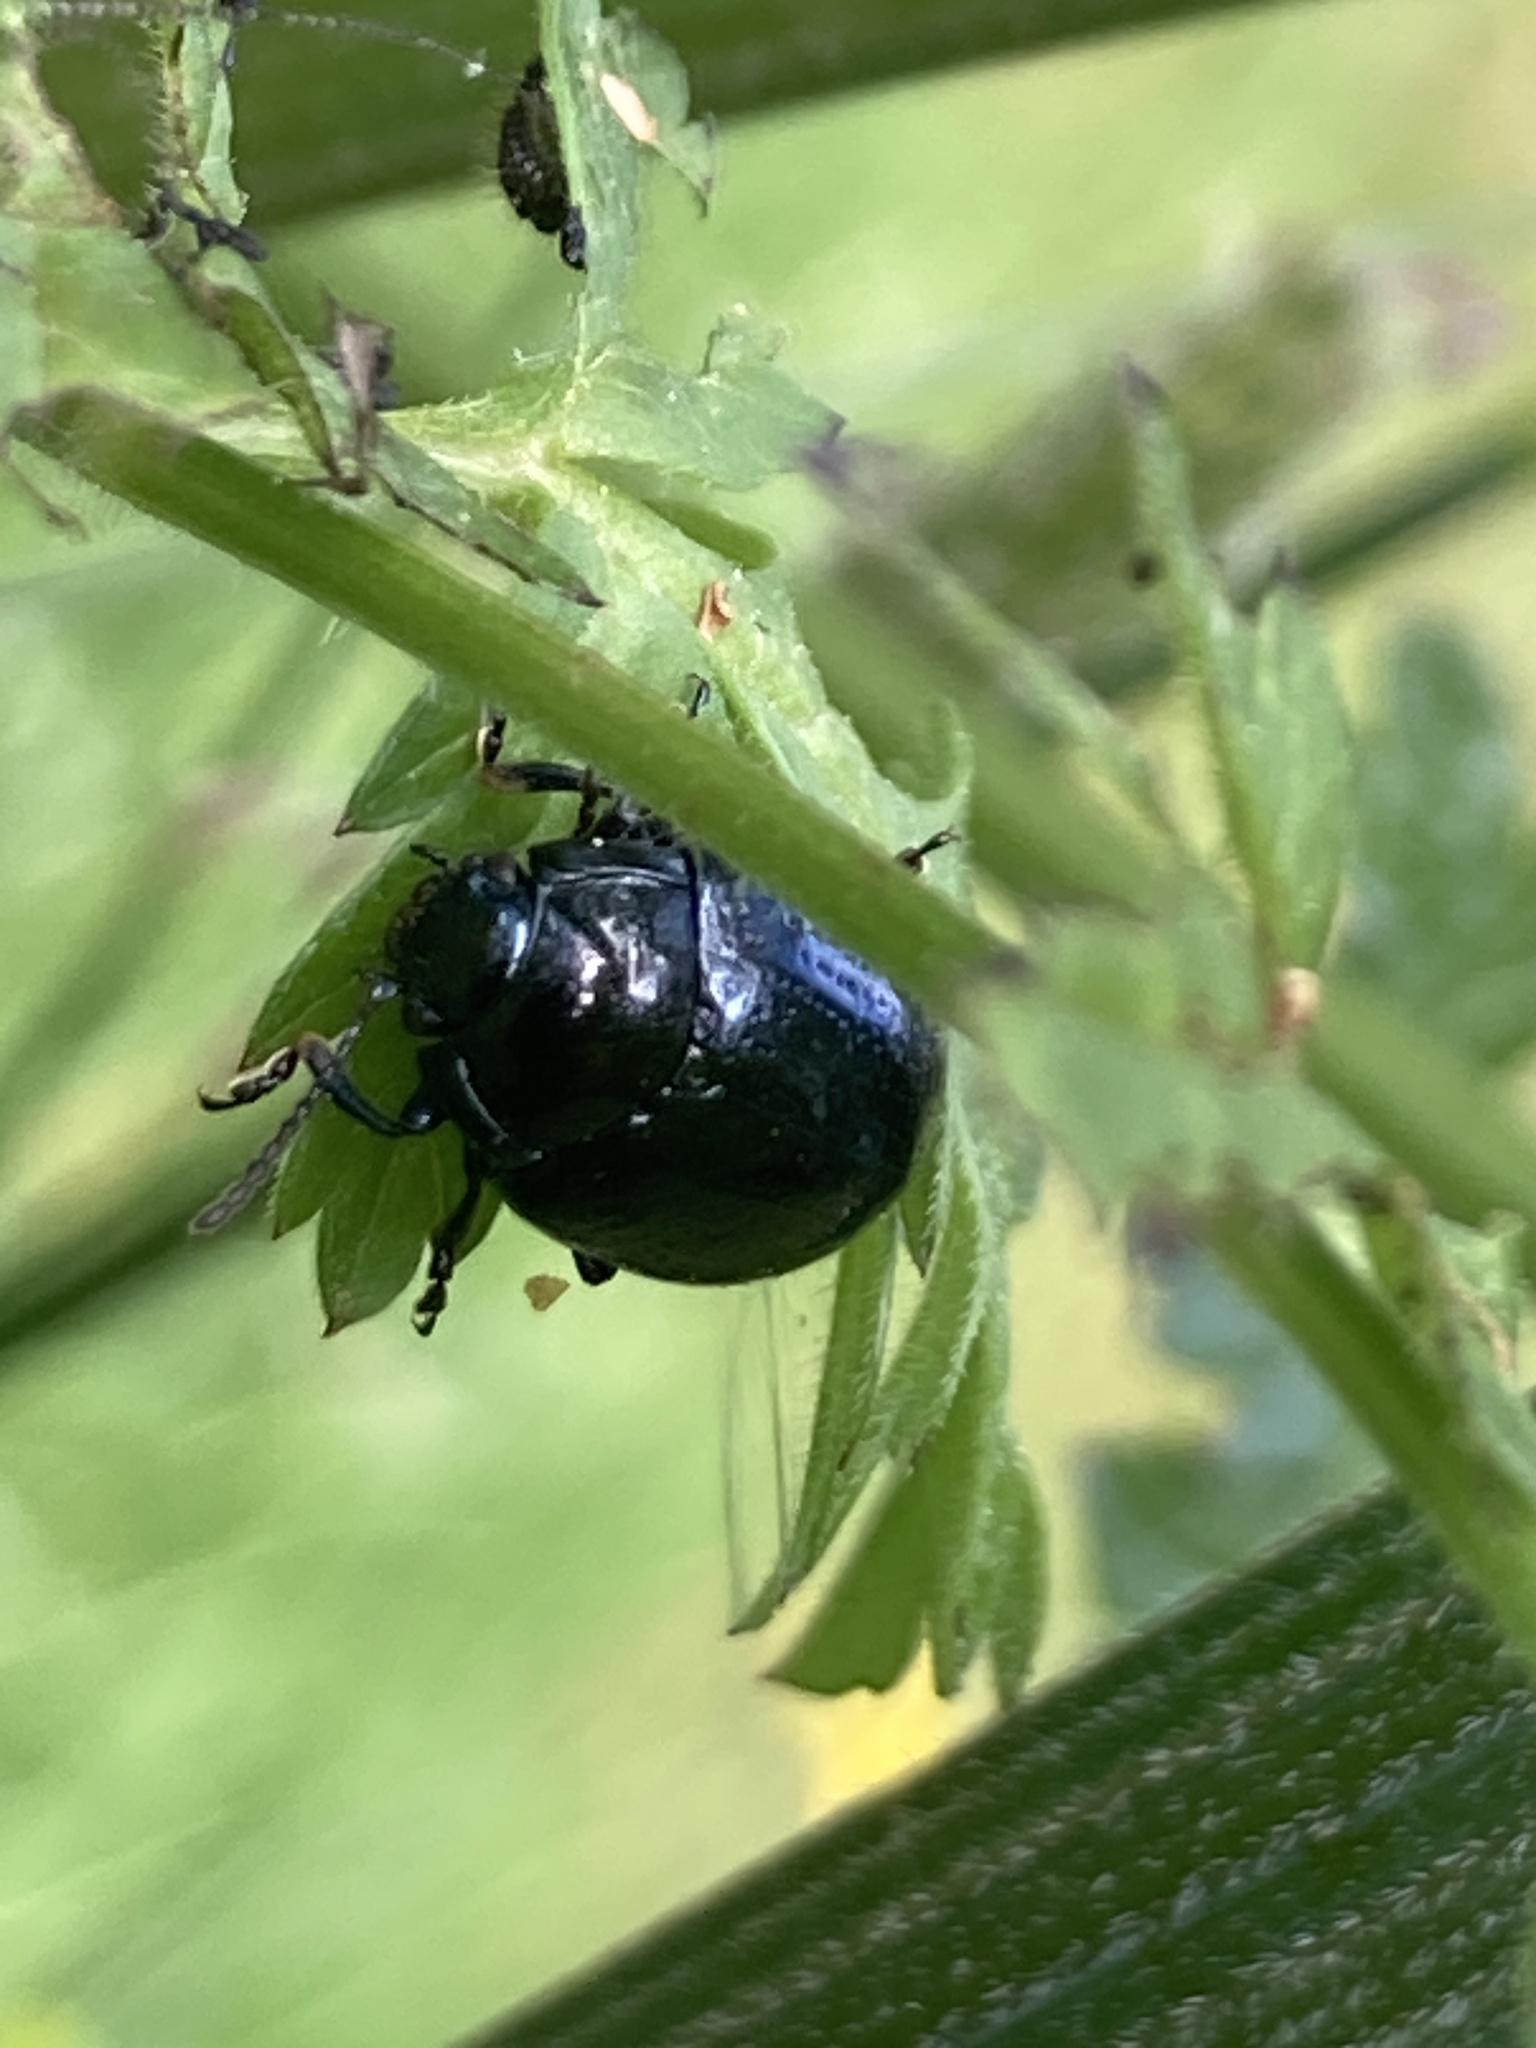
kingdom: Animalia
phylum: Arthropoda
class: Insecta
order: Coleoptera
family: Chrysomelidae
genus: Chrysolina
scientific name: Chrysolina oricalcia
